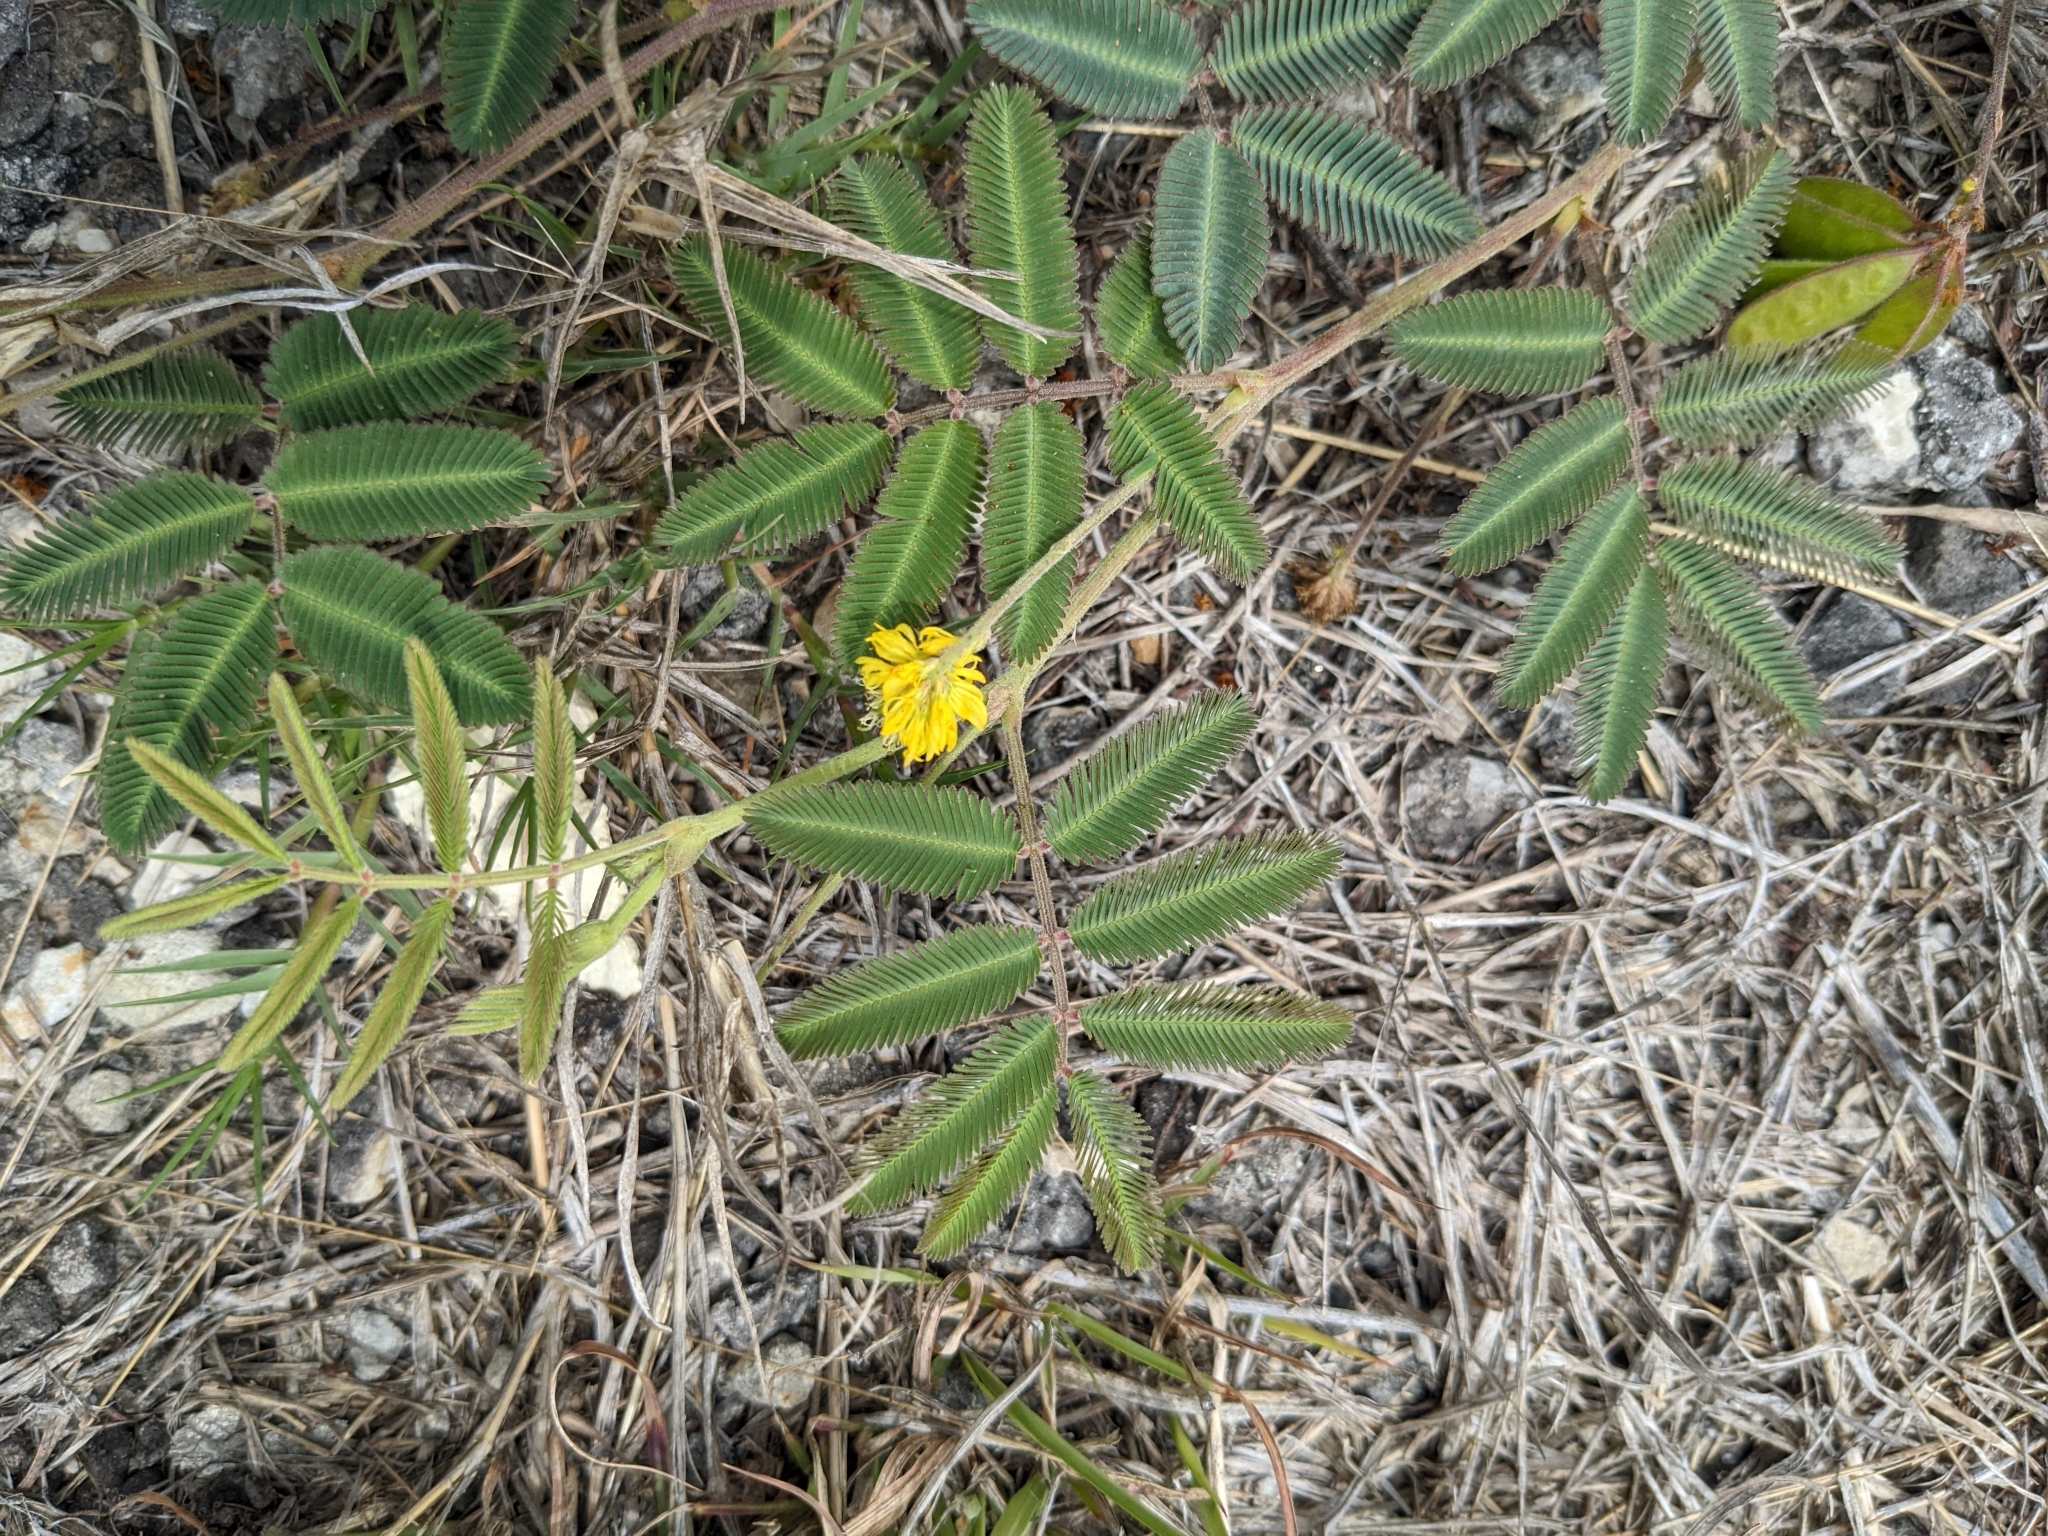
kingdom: Plantae
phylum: Tracheophyta
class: Magnoliopsida
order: Fabales
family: Fabaceae
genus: Neptunia
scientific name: Neptunia pubescens
